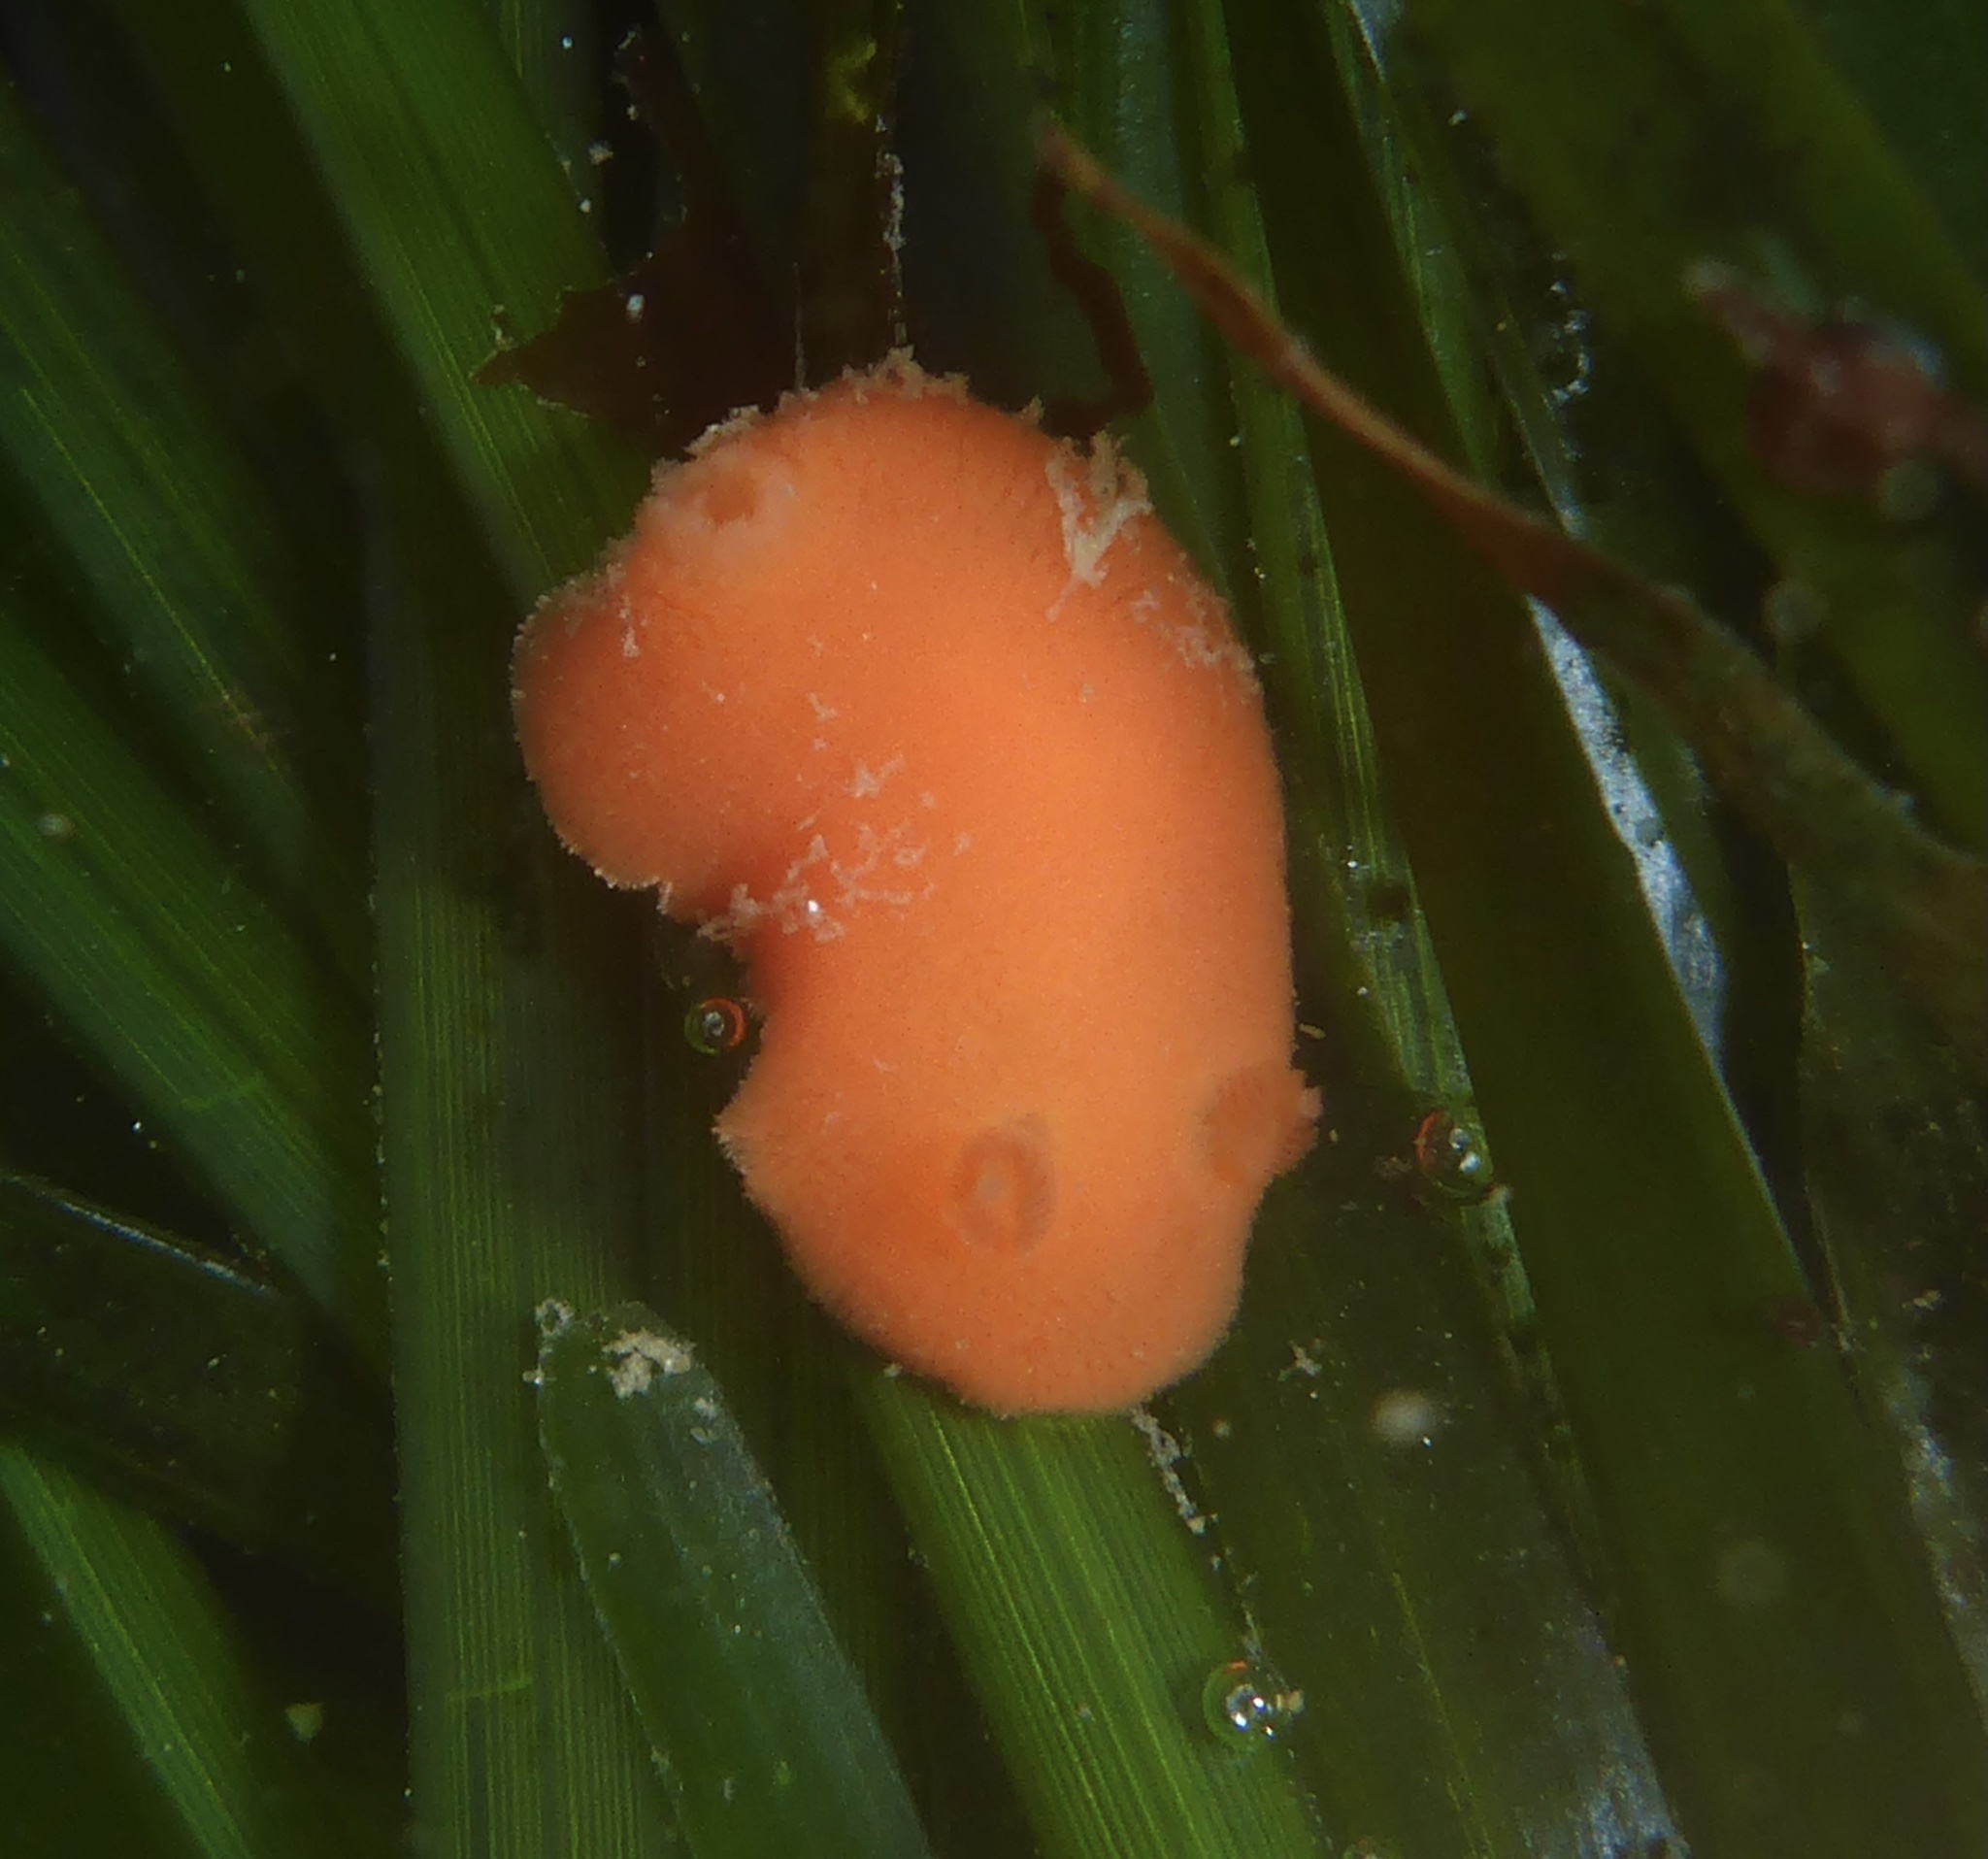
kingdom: Animalia
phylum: Mollusca
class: Gastropoda
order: Nudibranchia
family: Discodorididae
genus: Rostanga
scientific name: Rostanga pulchra
